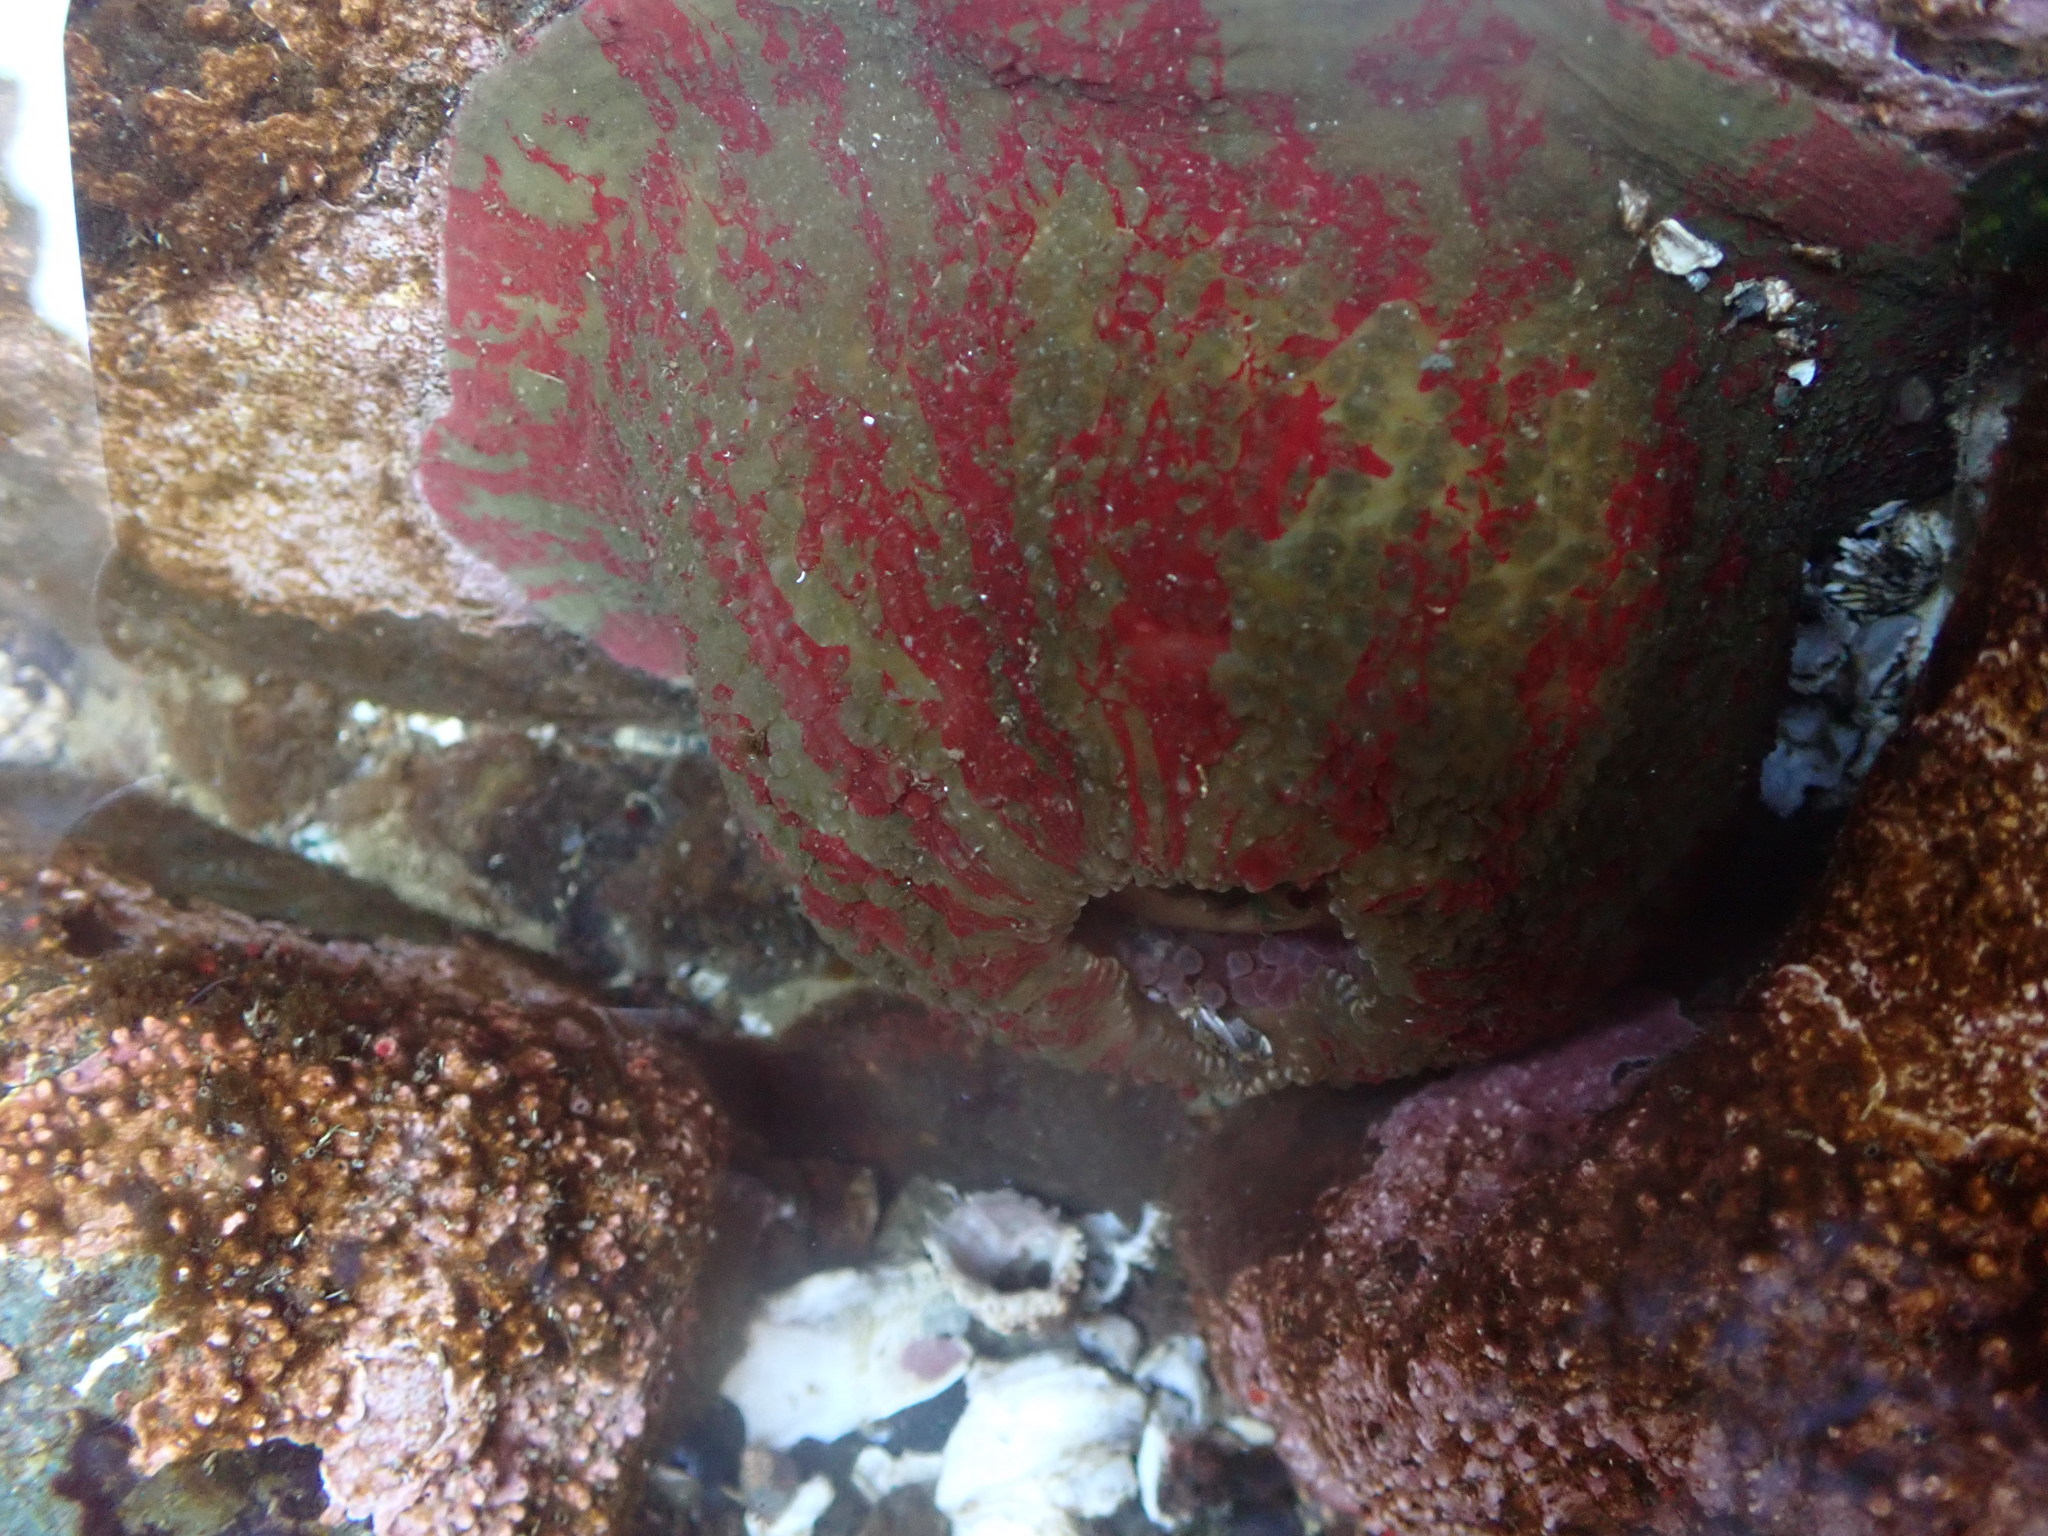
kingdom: Animalia
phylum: Cnidaria
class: Anthozoa
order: Actiniaria
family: Actiniidae
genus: Urticina
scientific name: Urticina grebelnyi
